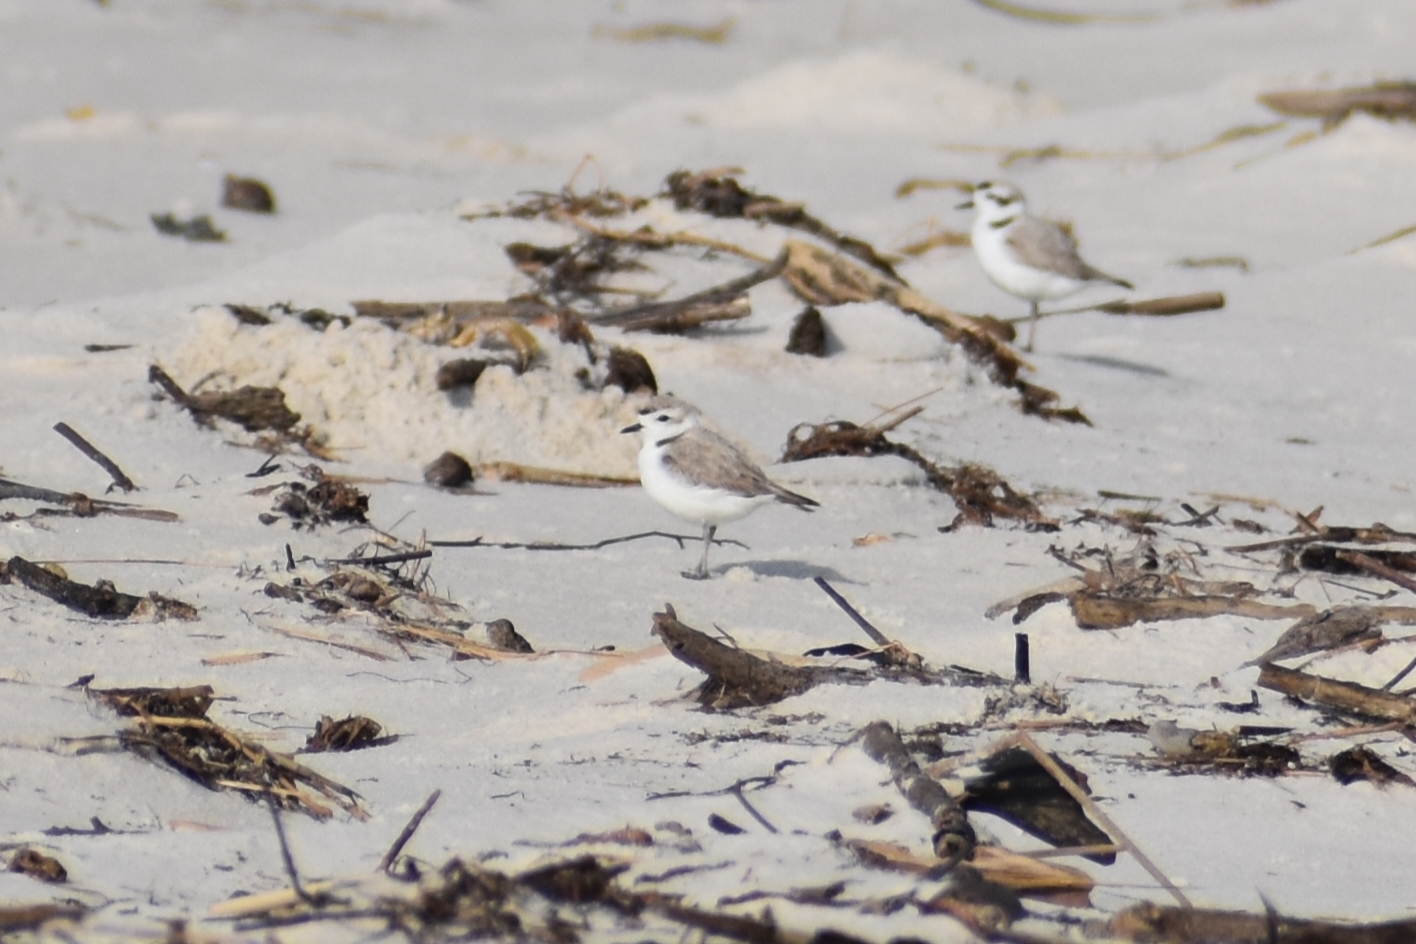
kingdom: Animalia
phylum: Chordata
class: Aves
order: Charadriiformes
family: Charadriidae
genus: Anarhynchus
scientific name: Anarhynchus
